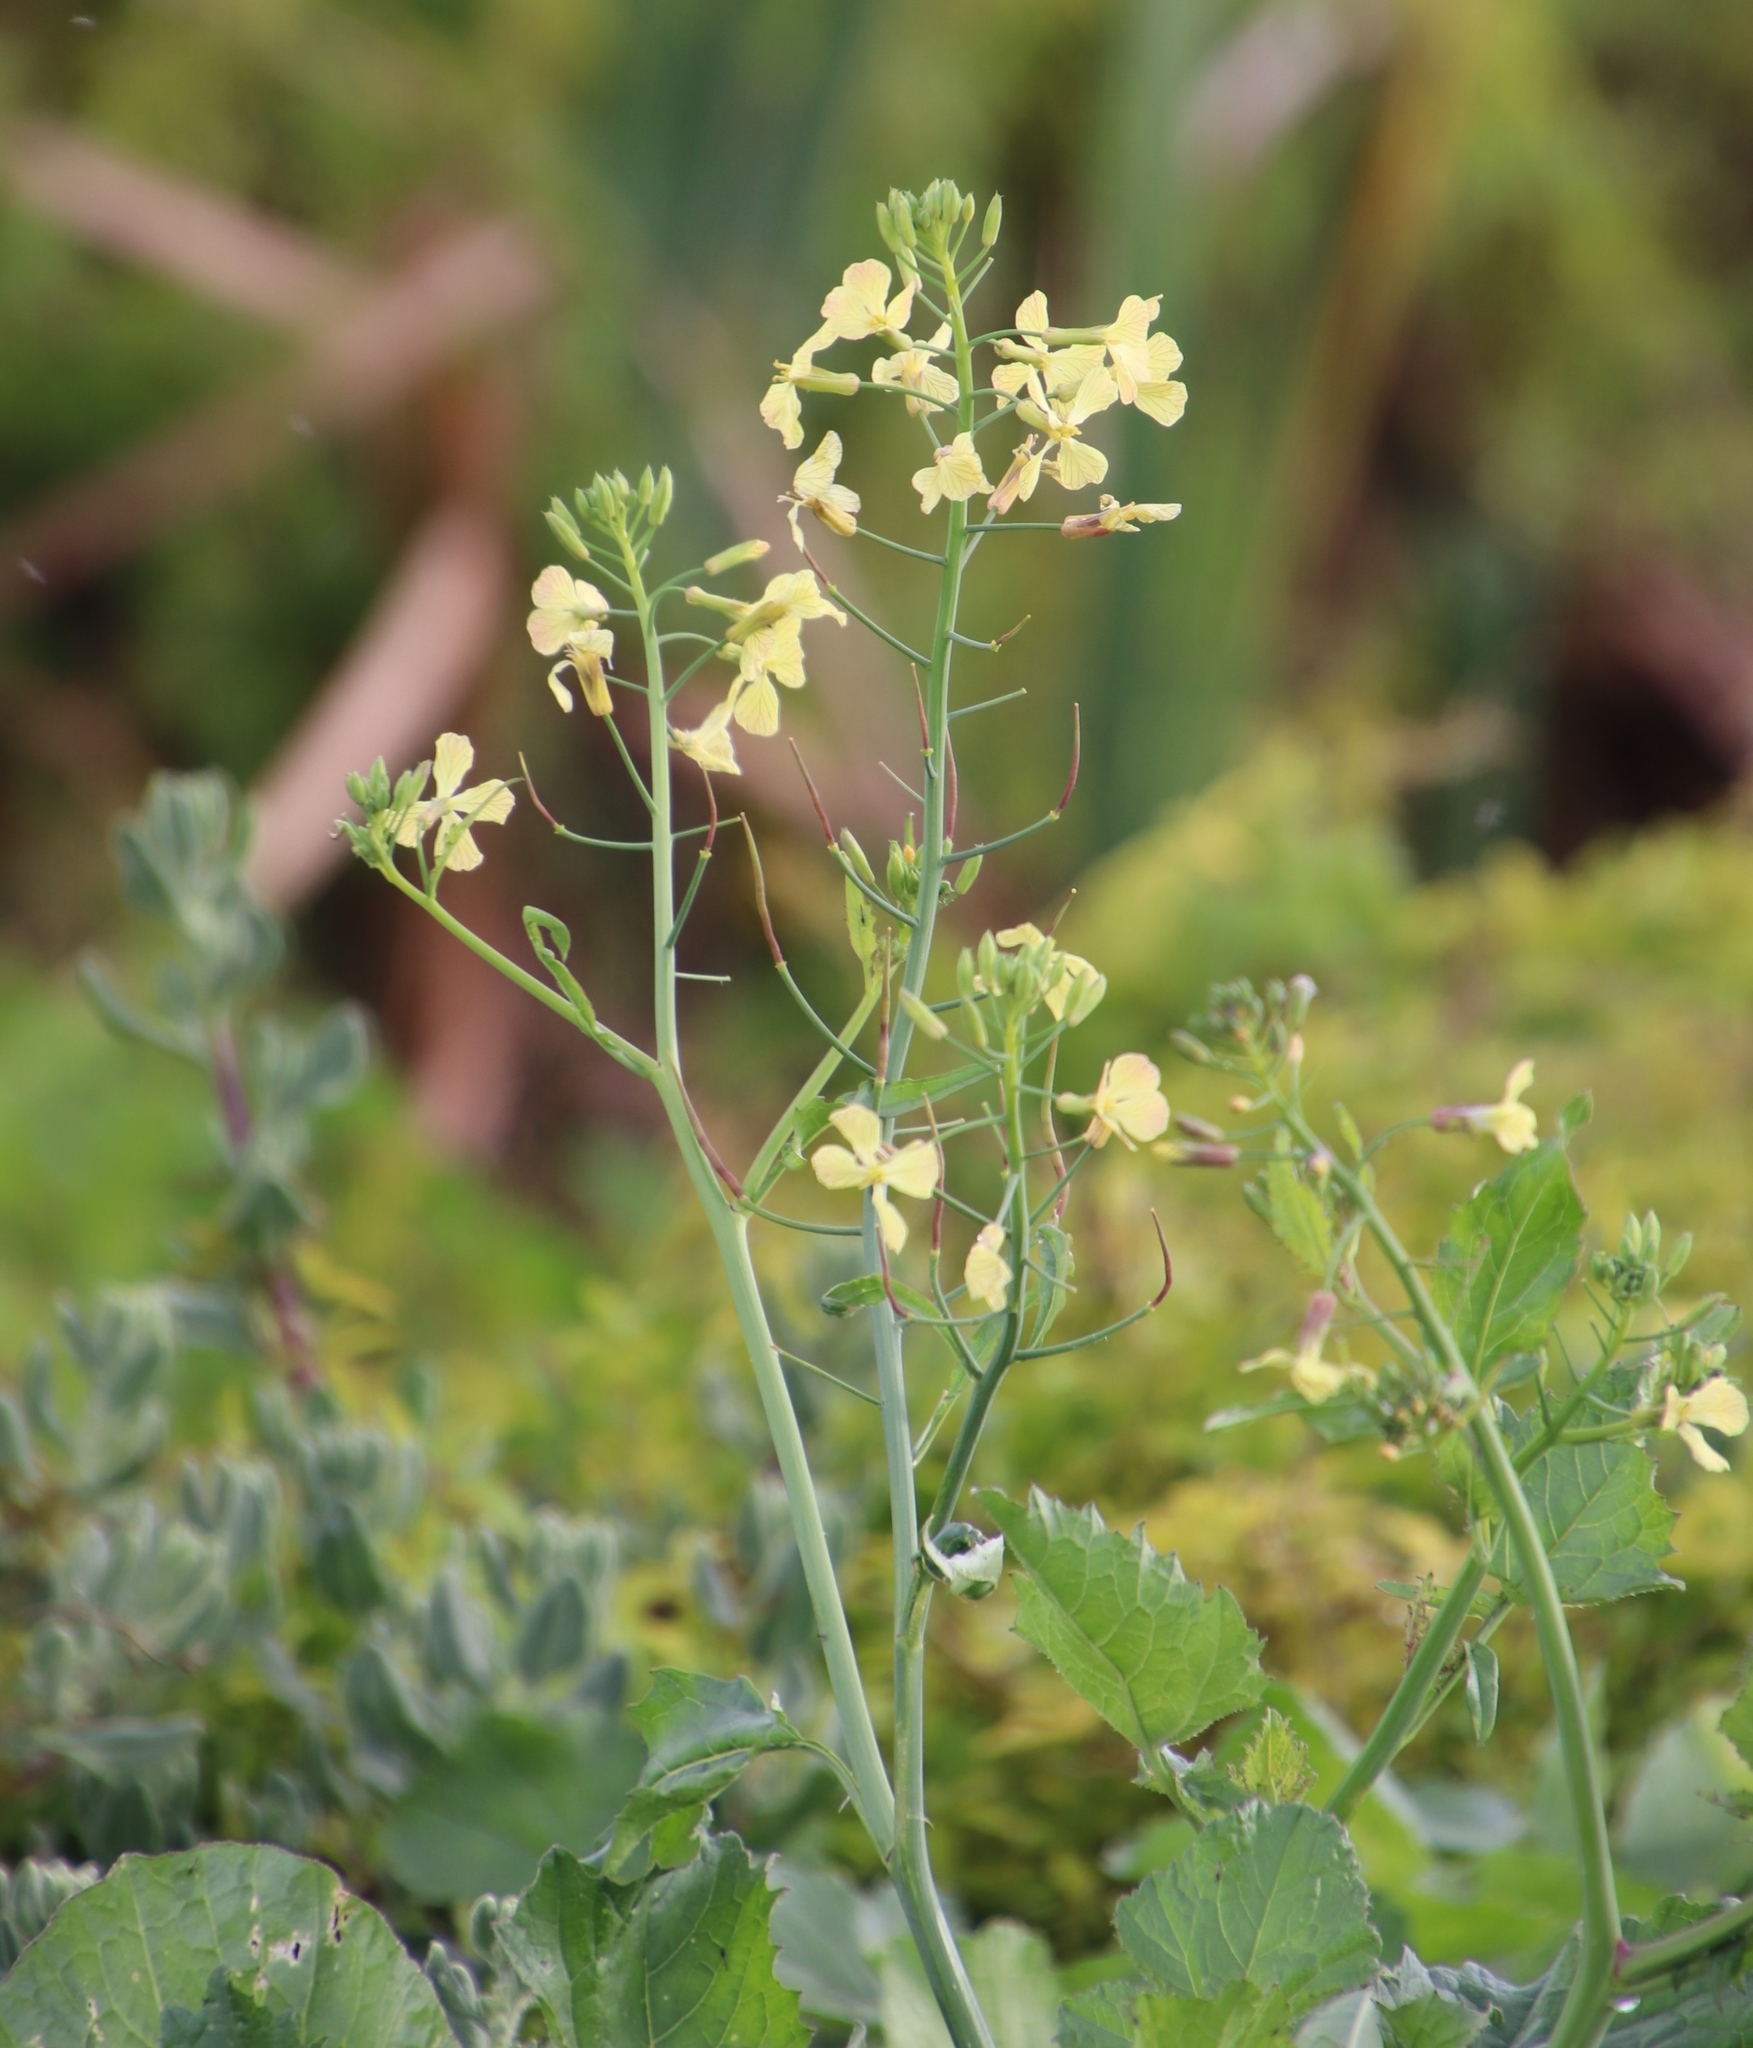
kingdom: Plantae
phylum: Tracheophyta
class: Magnoliopsida
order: Brassicales
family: Brassicaceae
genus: Raphanus
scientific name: Raphanus raphanistrum
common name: Wild radish
